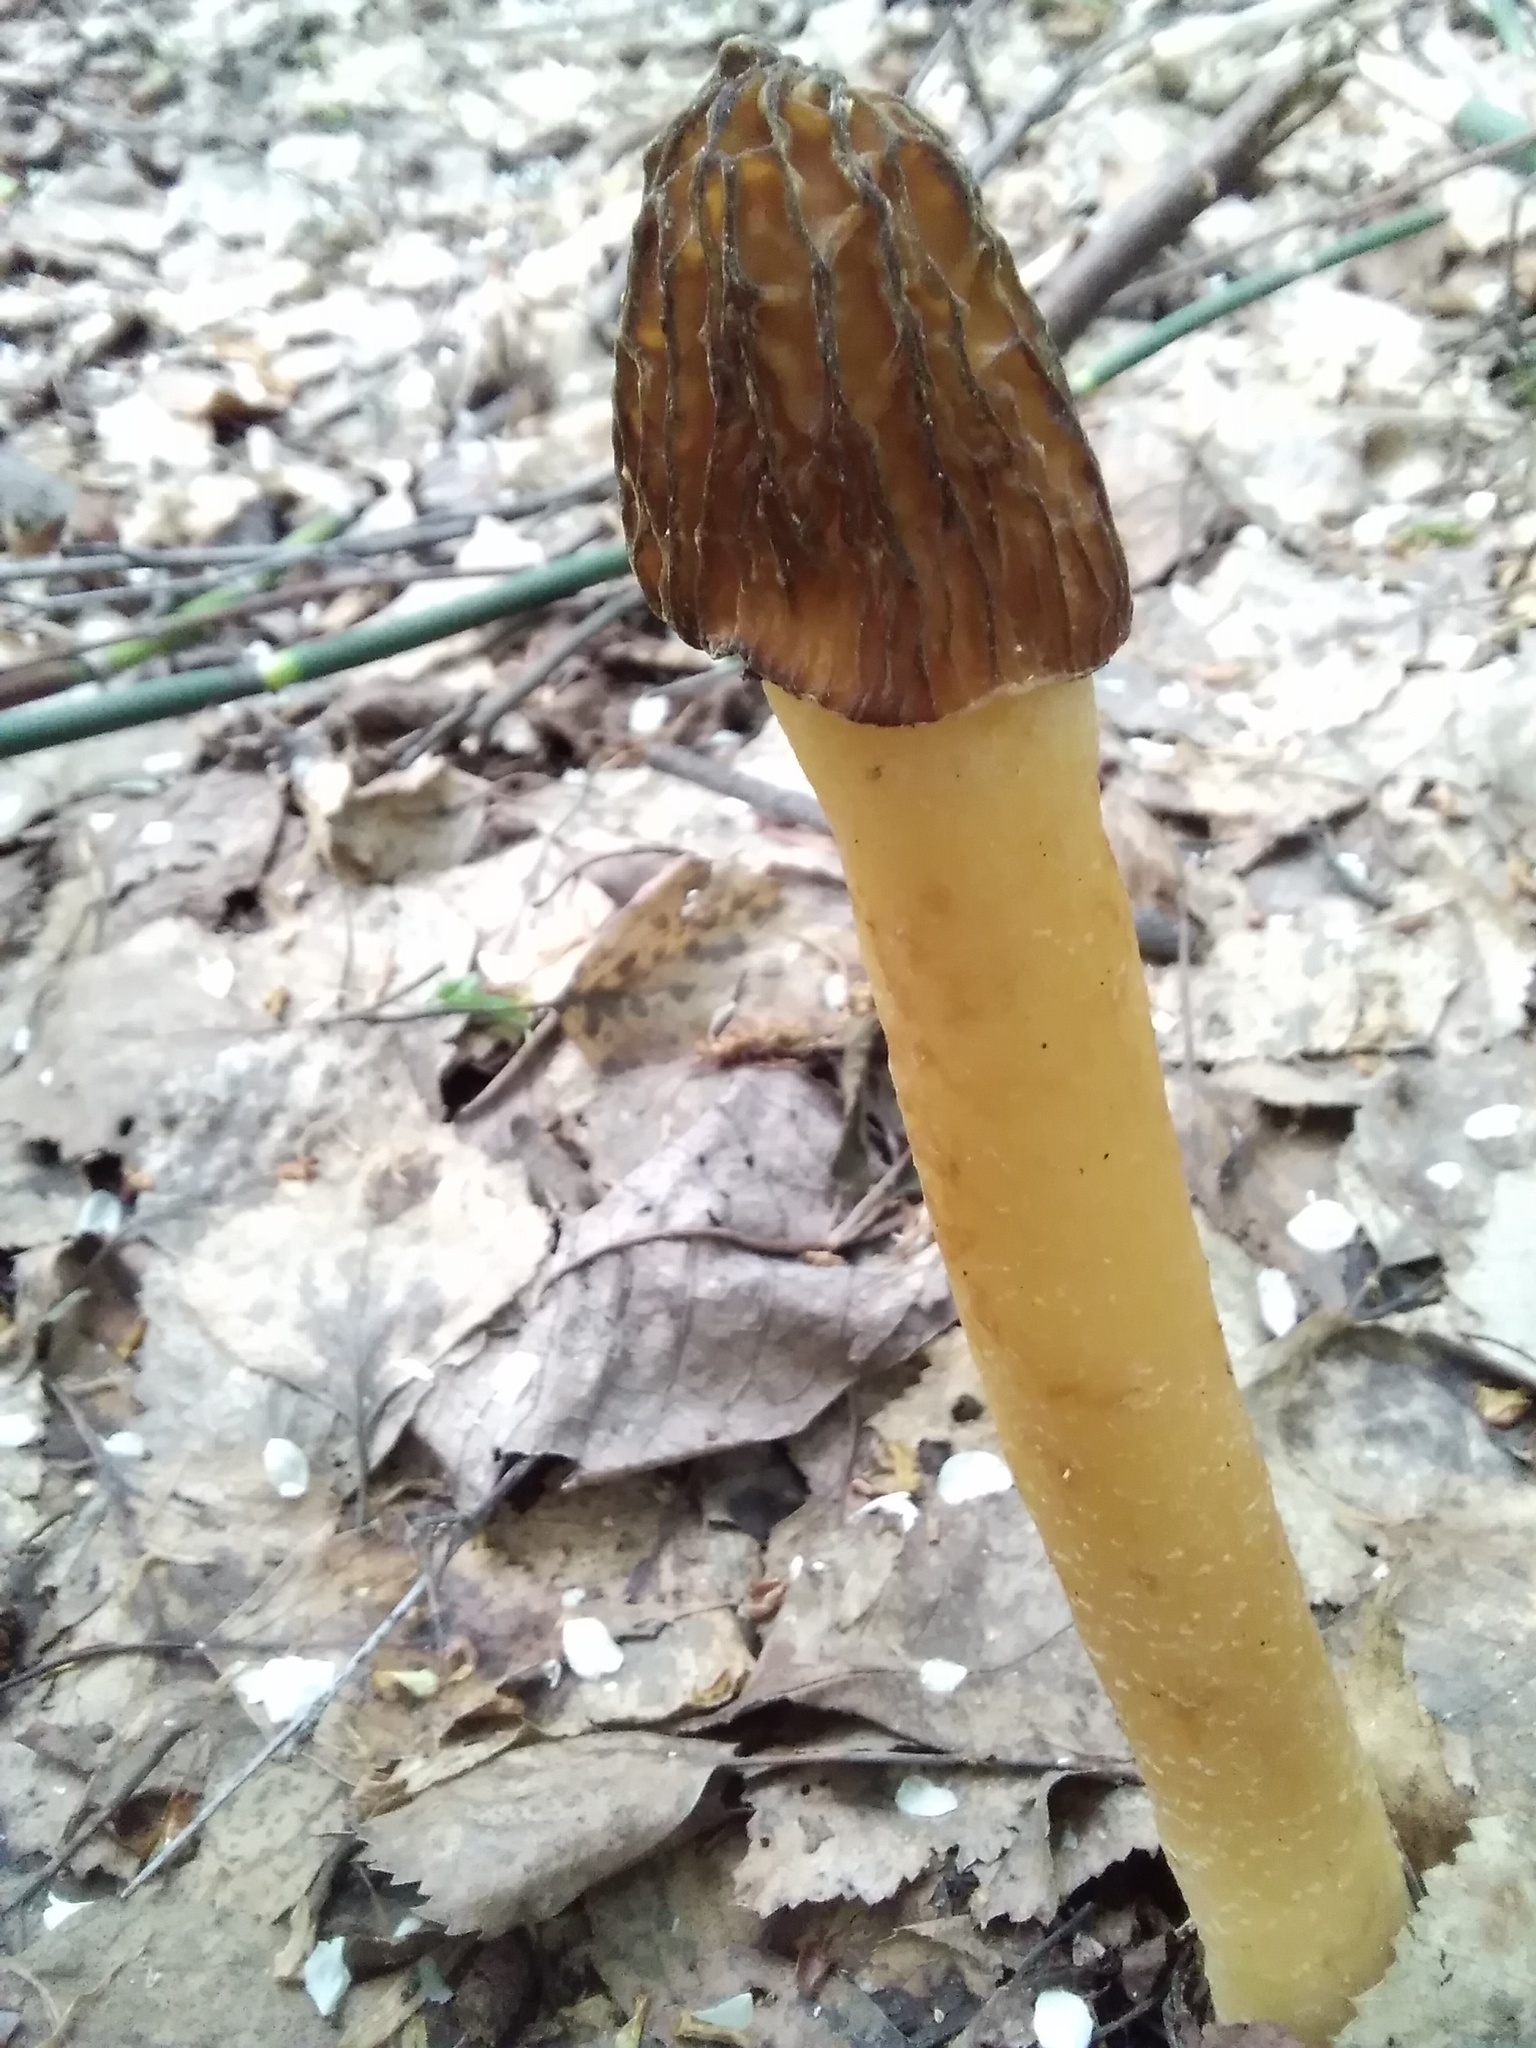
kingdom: Fungi
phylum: Ascomycota
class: Pezizomycetes
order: Pezizales
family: Morchellaceae
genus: Verpa
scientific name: Verpa bohemica
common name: Wrinkled thimble morel
